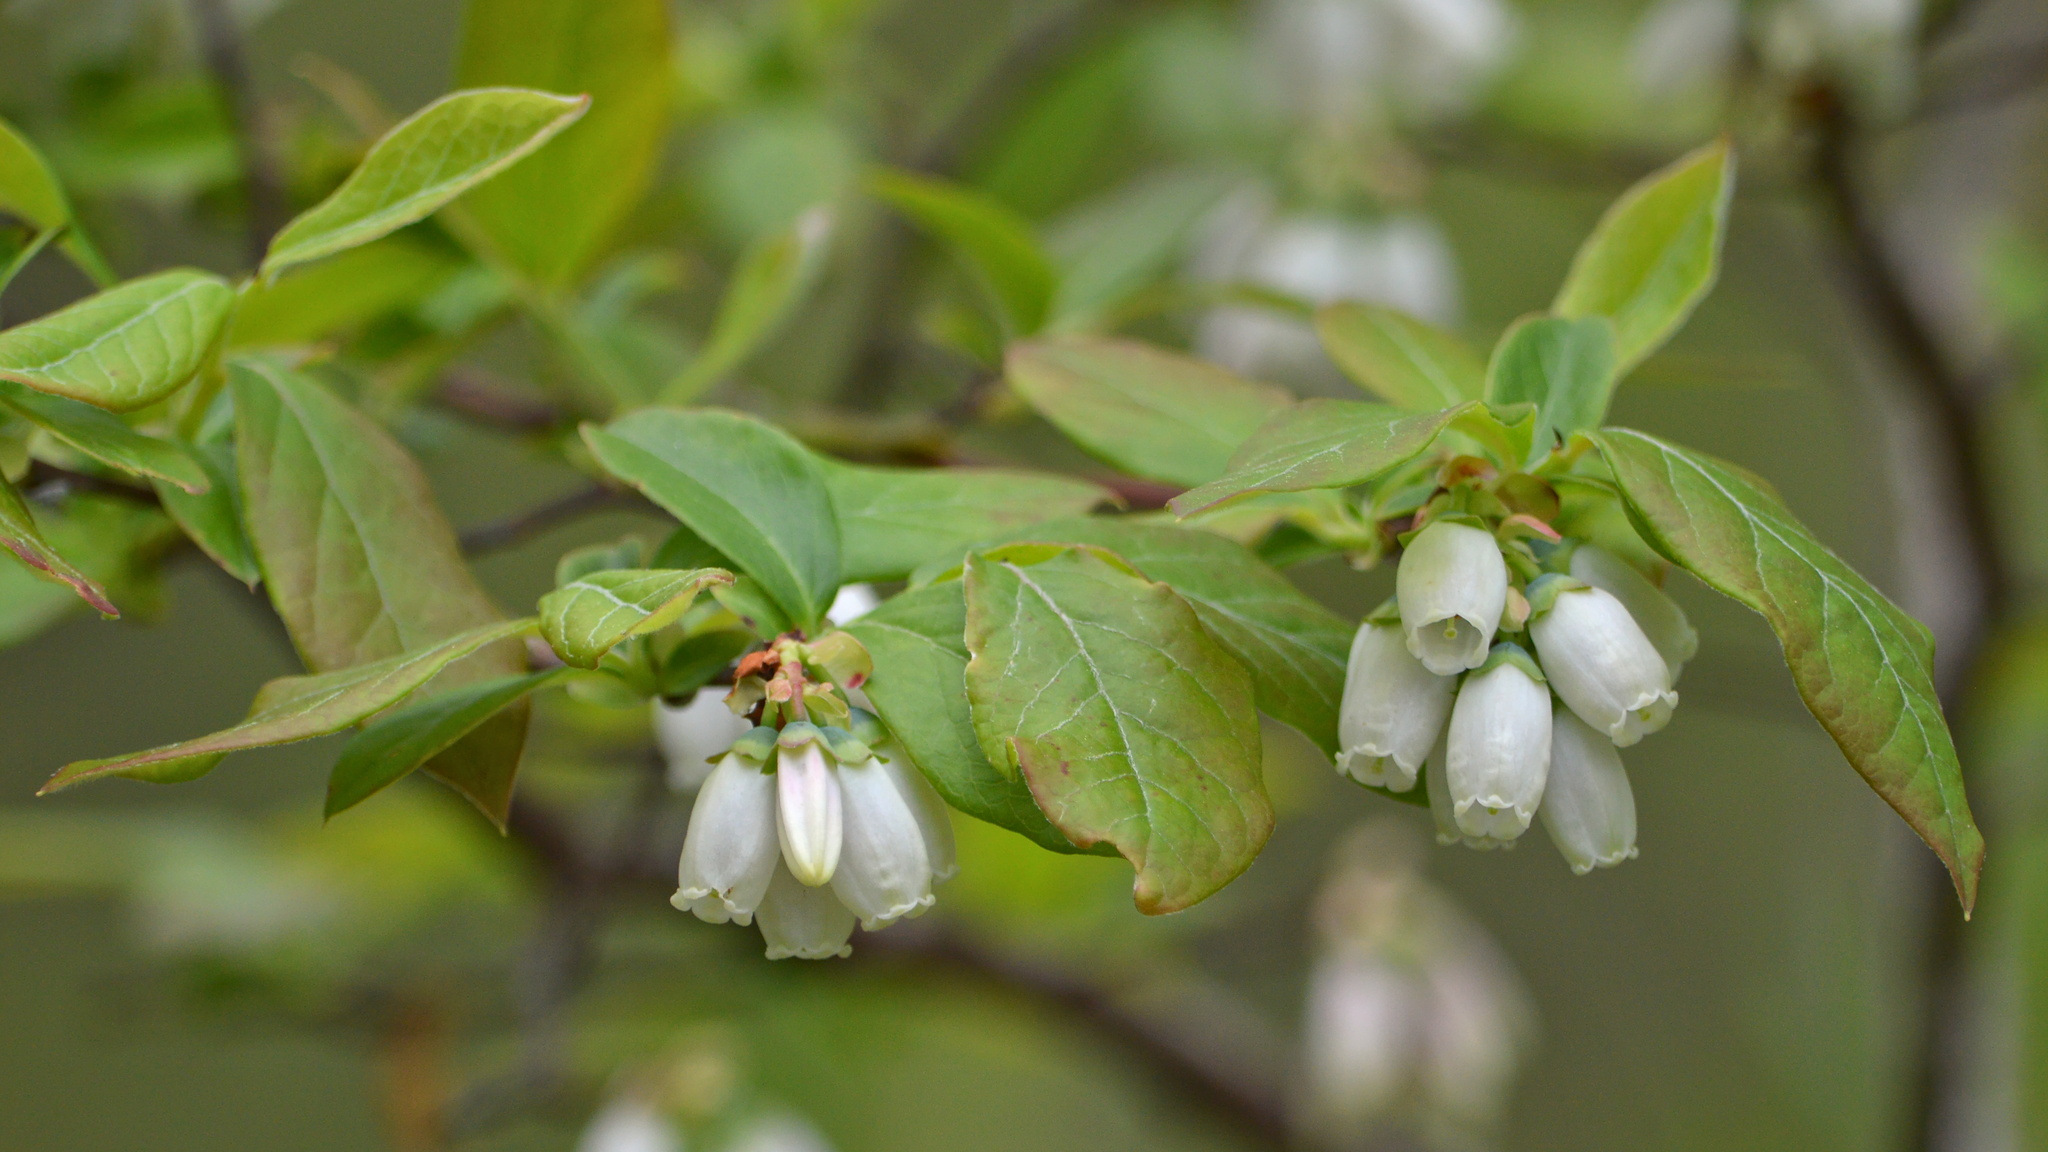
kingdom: Plantae
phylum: Tracheophyta
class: Magnoliopsida
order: Ericales
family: Ericaceae
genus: Vaccinium
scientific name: Vaccinium corymbosum
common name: Blueberry
